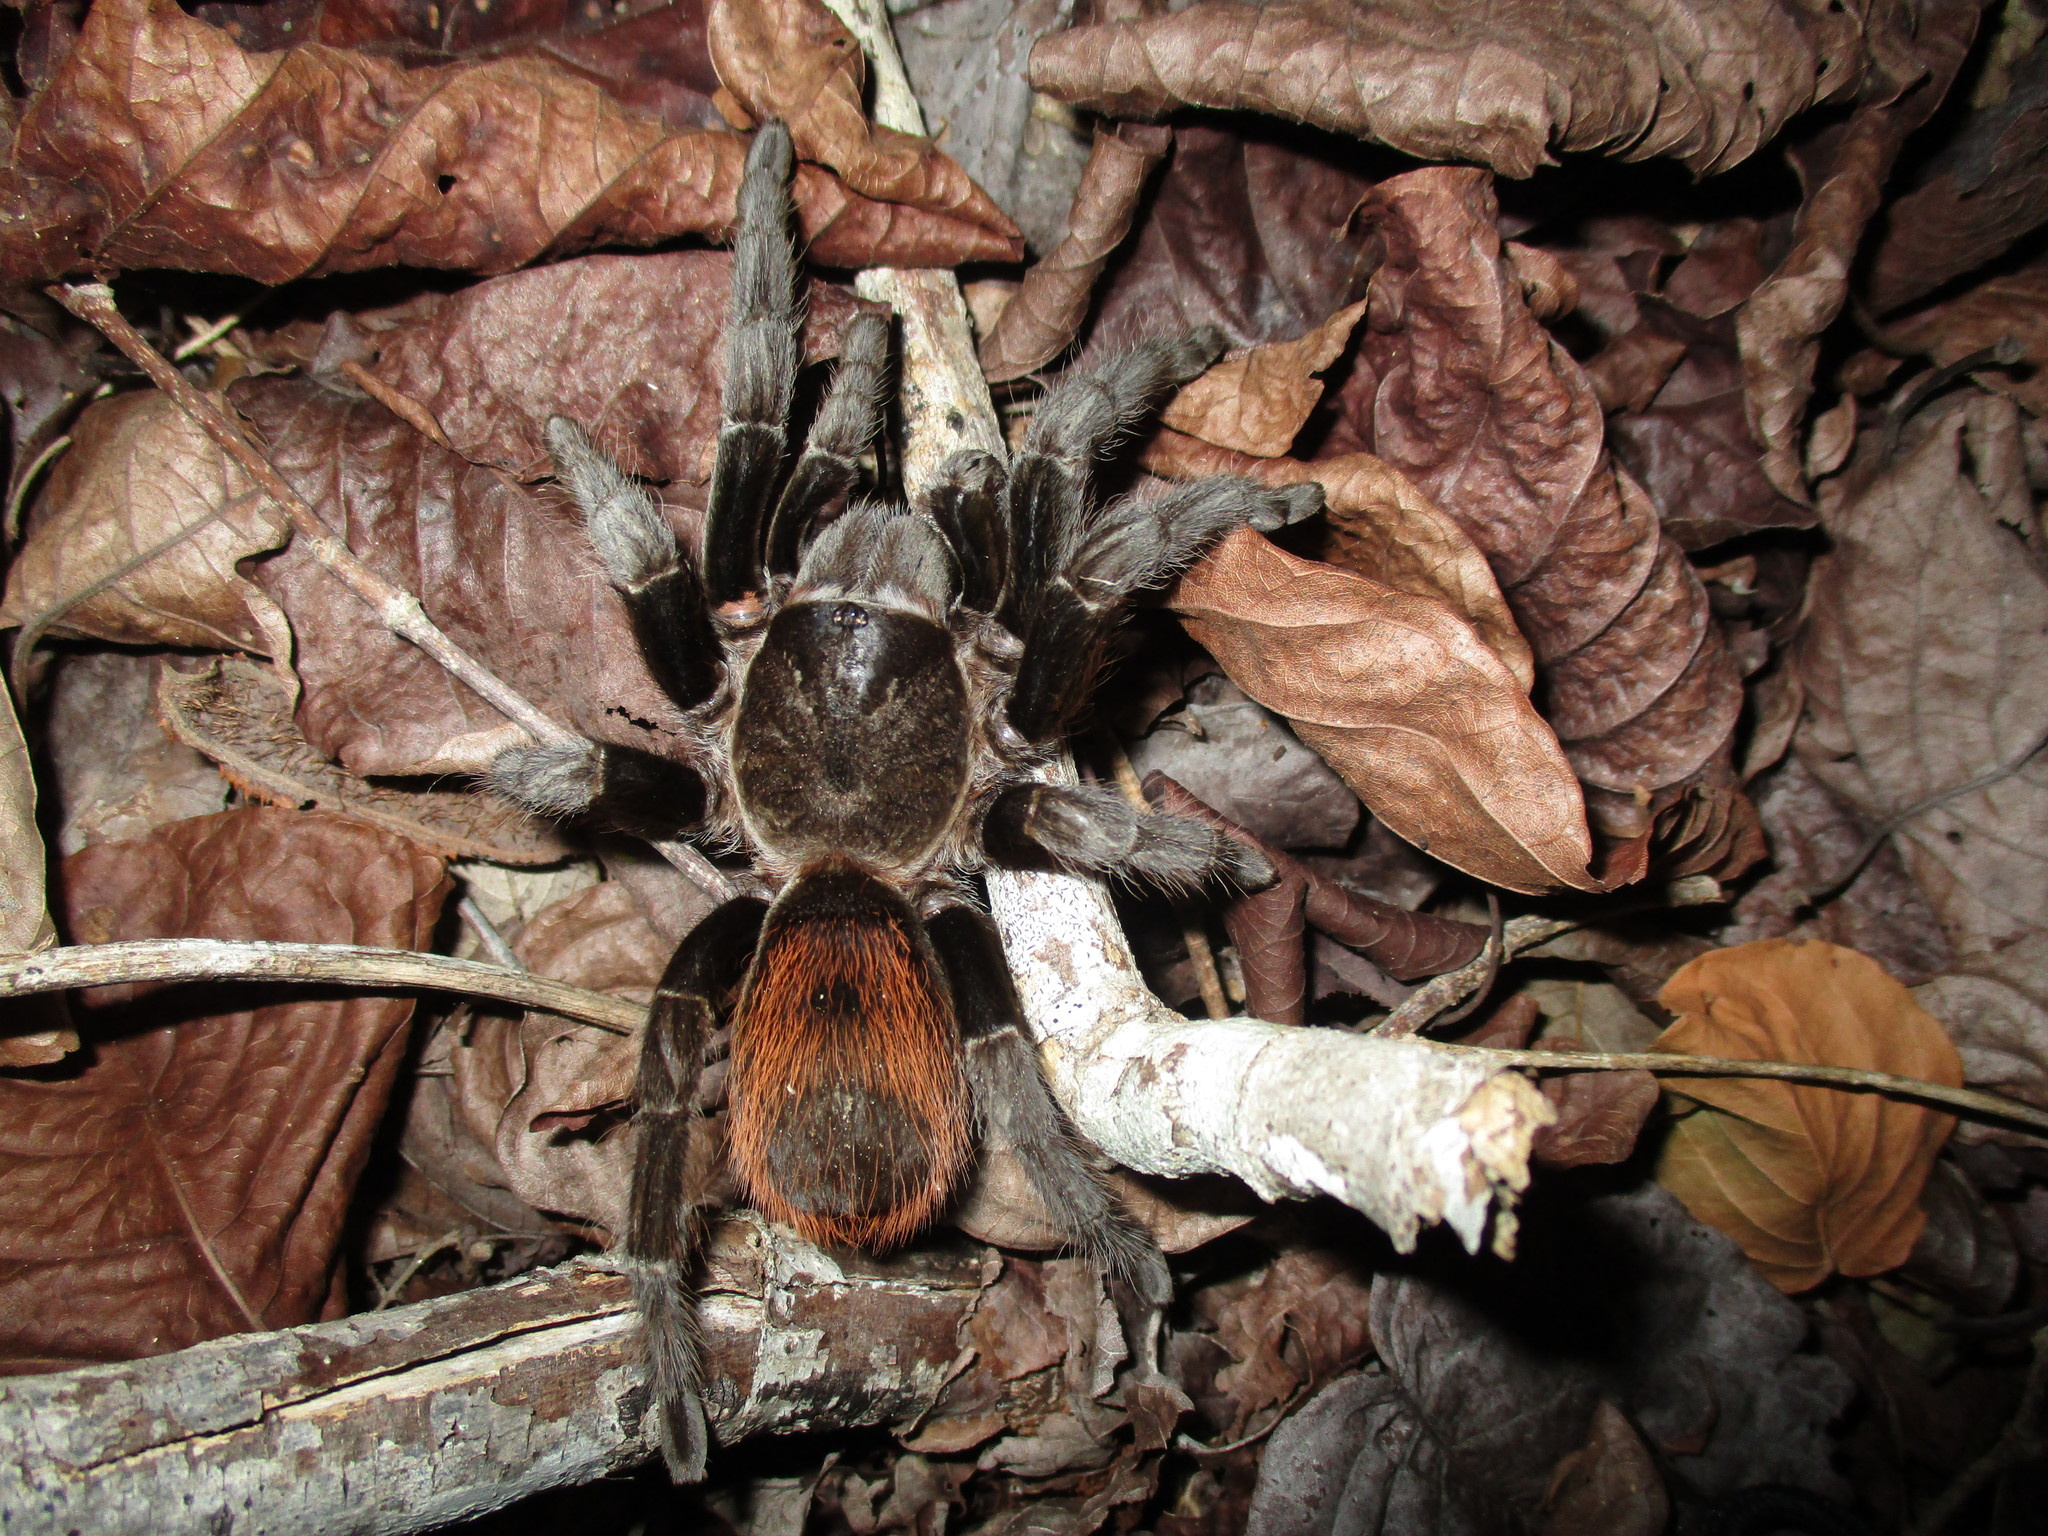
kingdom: Animalia
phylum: Arthropoda
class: Arachnida
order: Araneae
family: Theraphosidae
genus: Tliltocatl
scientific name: Tliltocatl epicureanus
